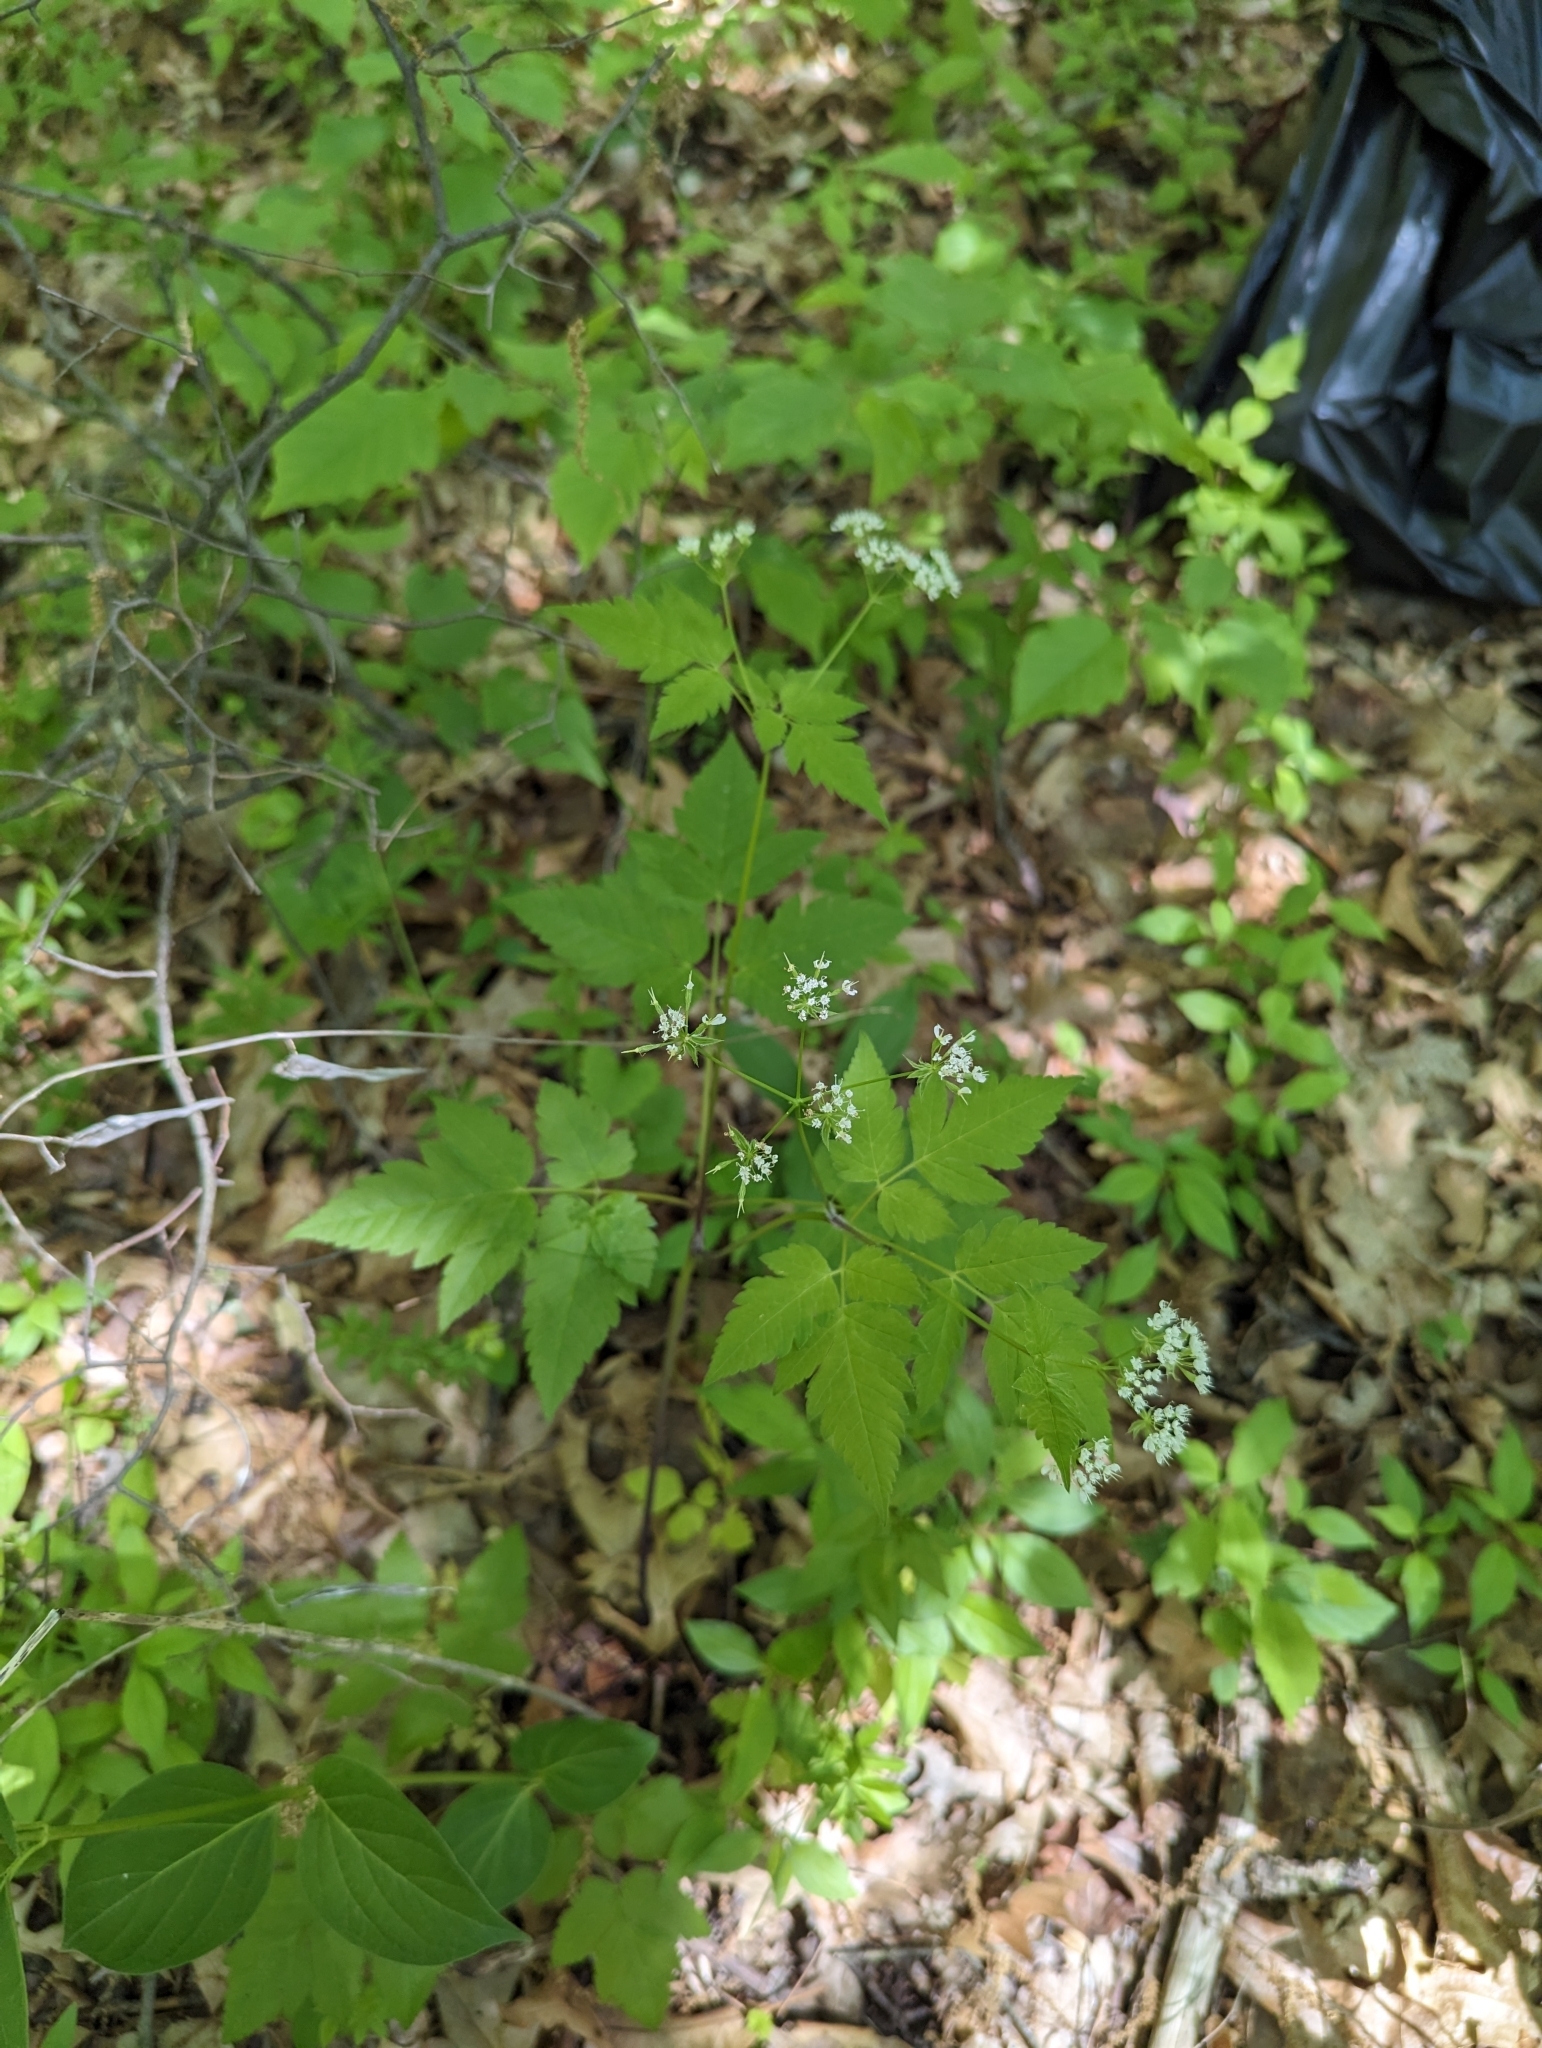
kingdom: Plantae
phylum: Tracheophyta
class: Magnoliopsida
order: Apiales
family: Apiaceae
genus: Osmorhiza
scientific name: Osmorhiza longistylis
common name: Smooth sweet cicely
